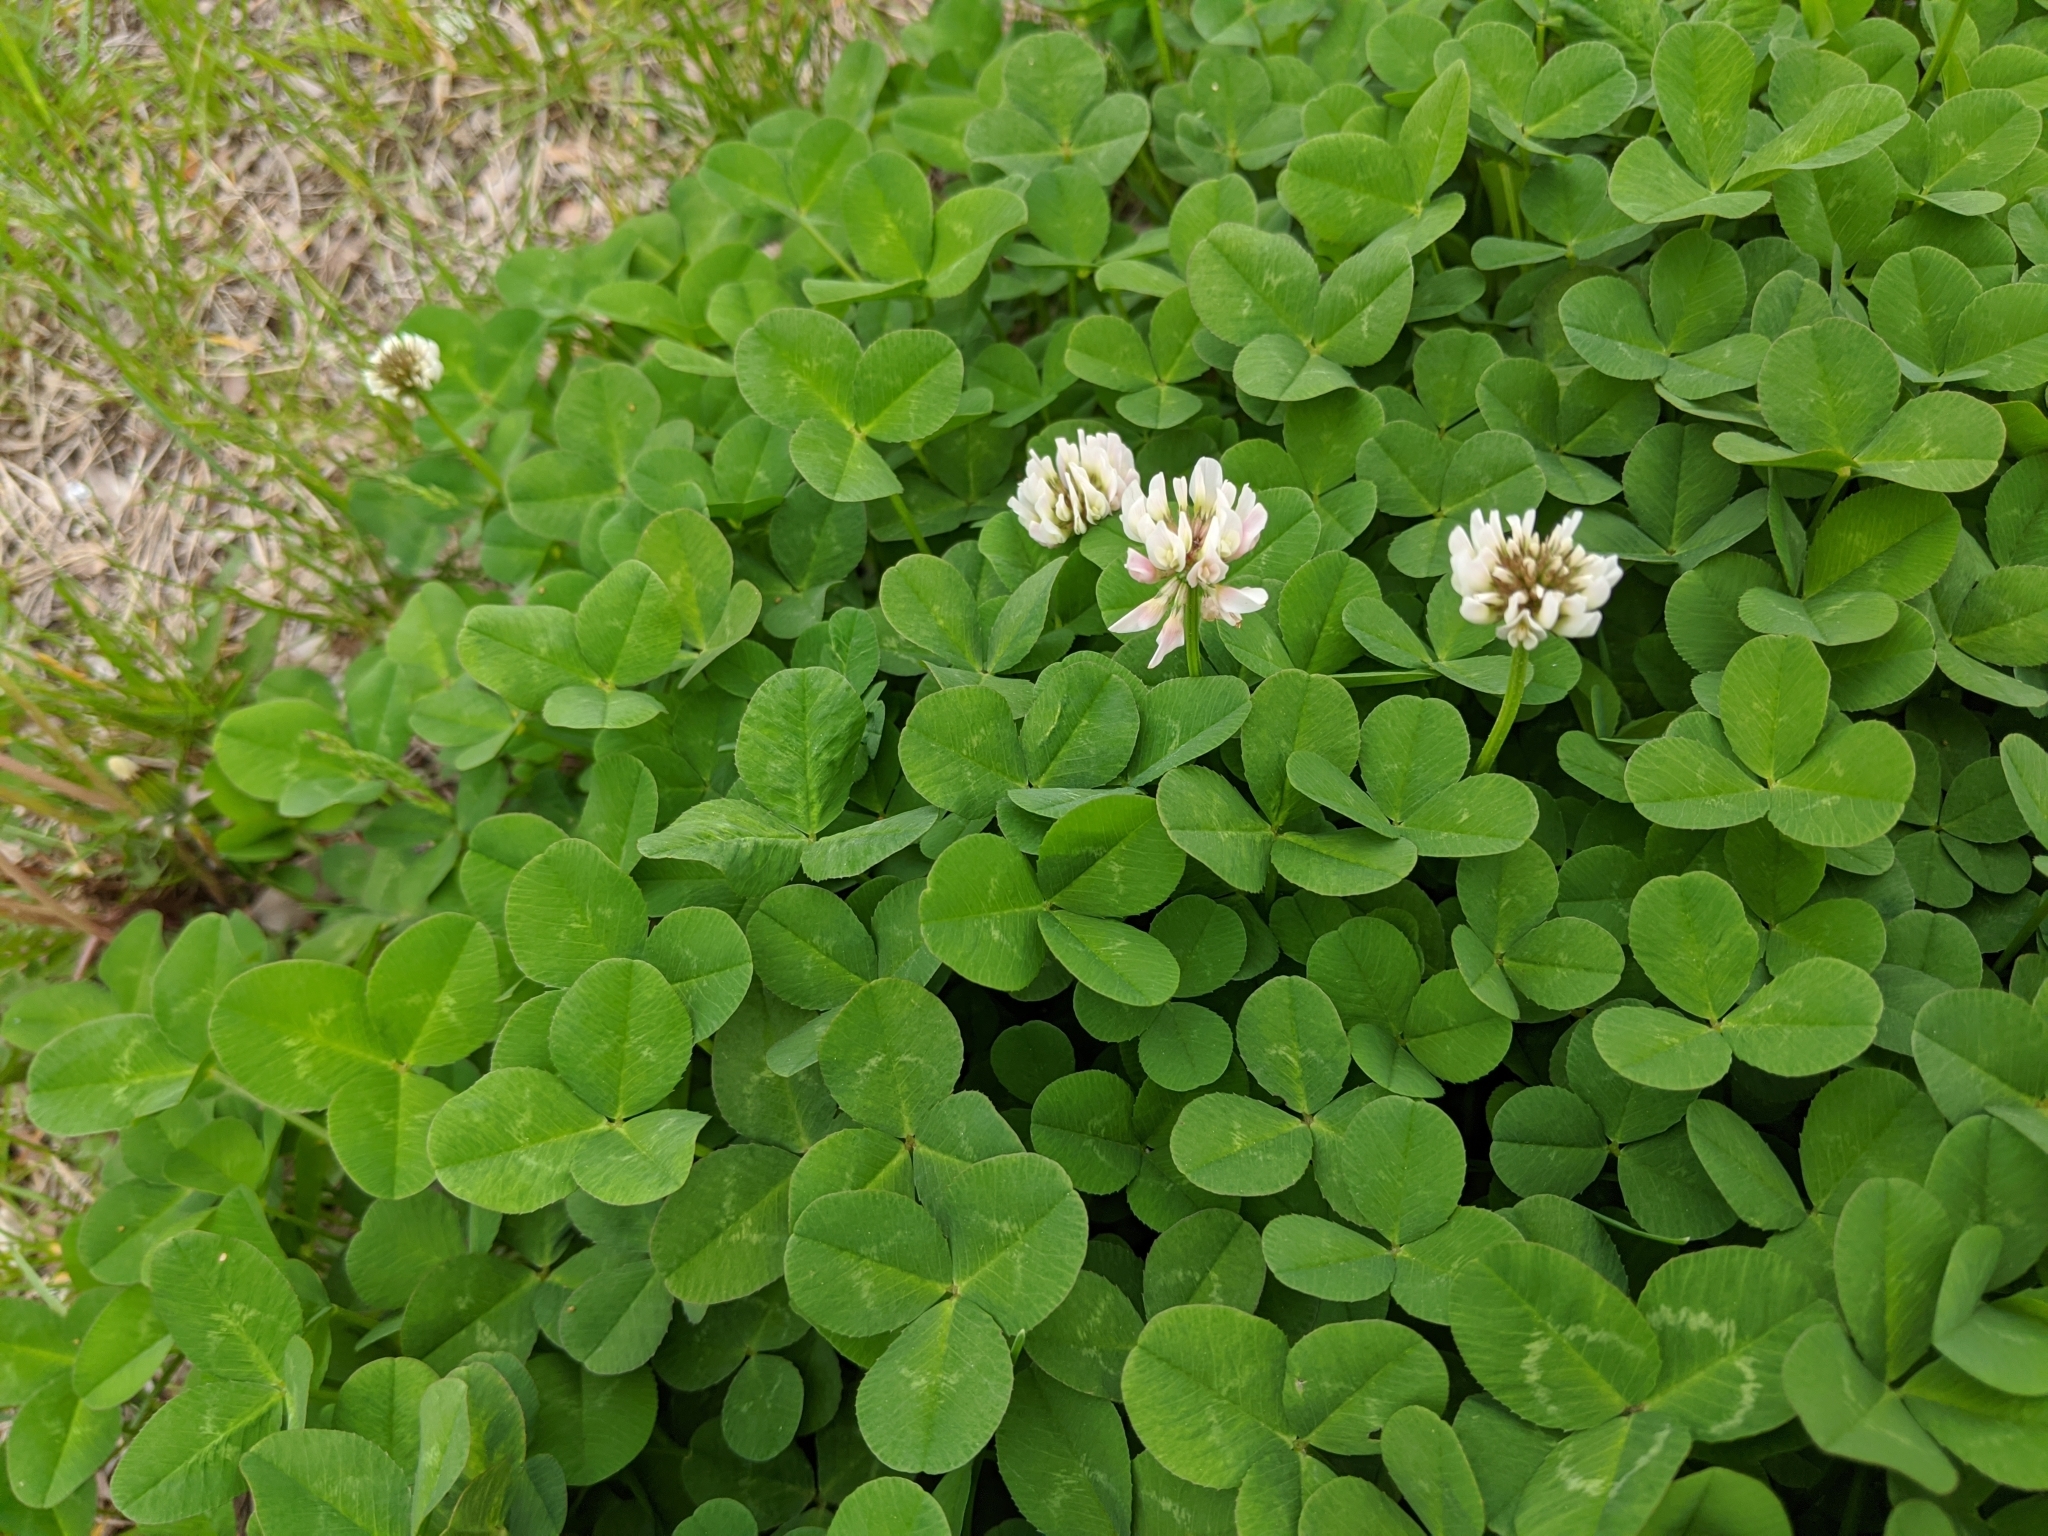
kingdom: Plantae
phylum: Tracheophyta
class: Magnoliopsida
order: Fabales
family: Fabaceae
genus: Trifolium
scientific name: Trifolium repens
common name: White clover
